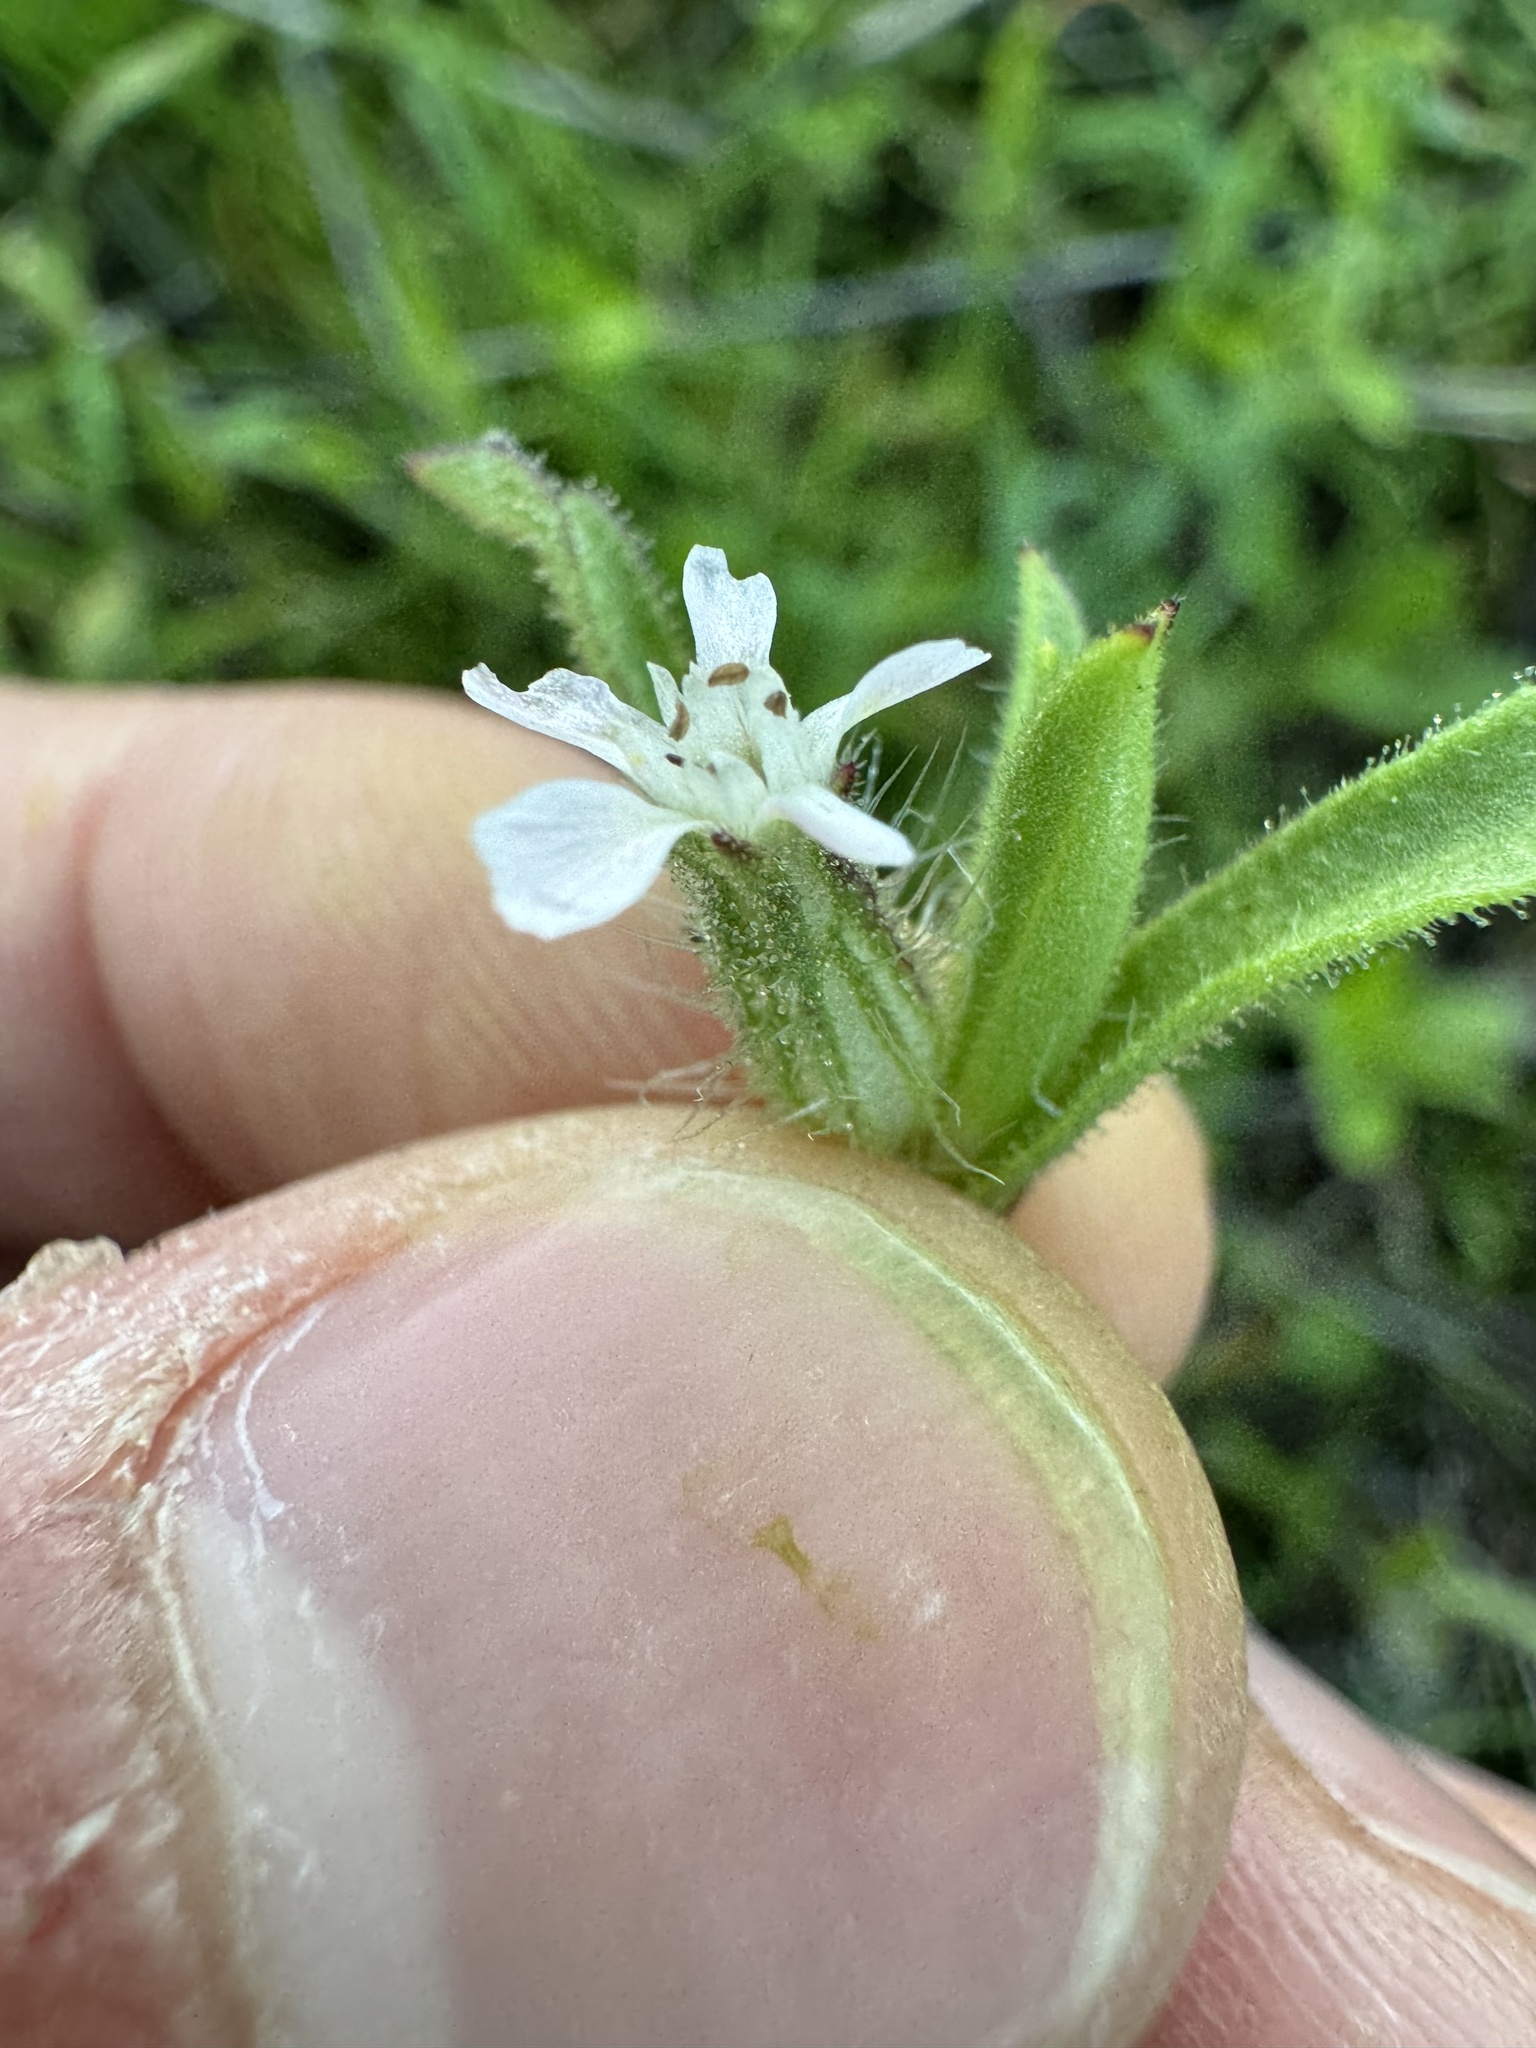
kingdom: Plantae
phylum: Tracheophyta
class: Magnoliopsida
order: Caryophyllales
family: Caryophyllaceae
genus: Silene
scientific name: Silene gallica
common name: Small-flowered catchfly
